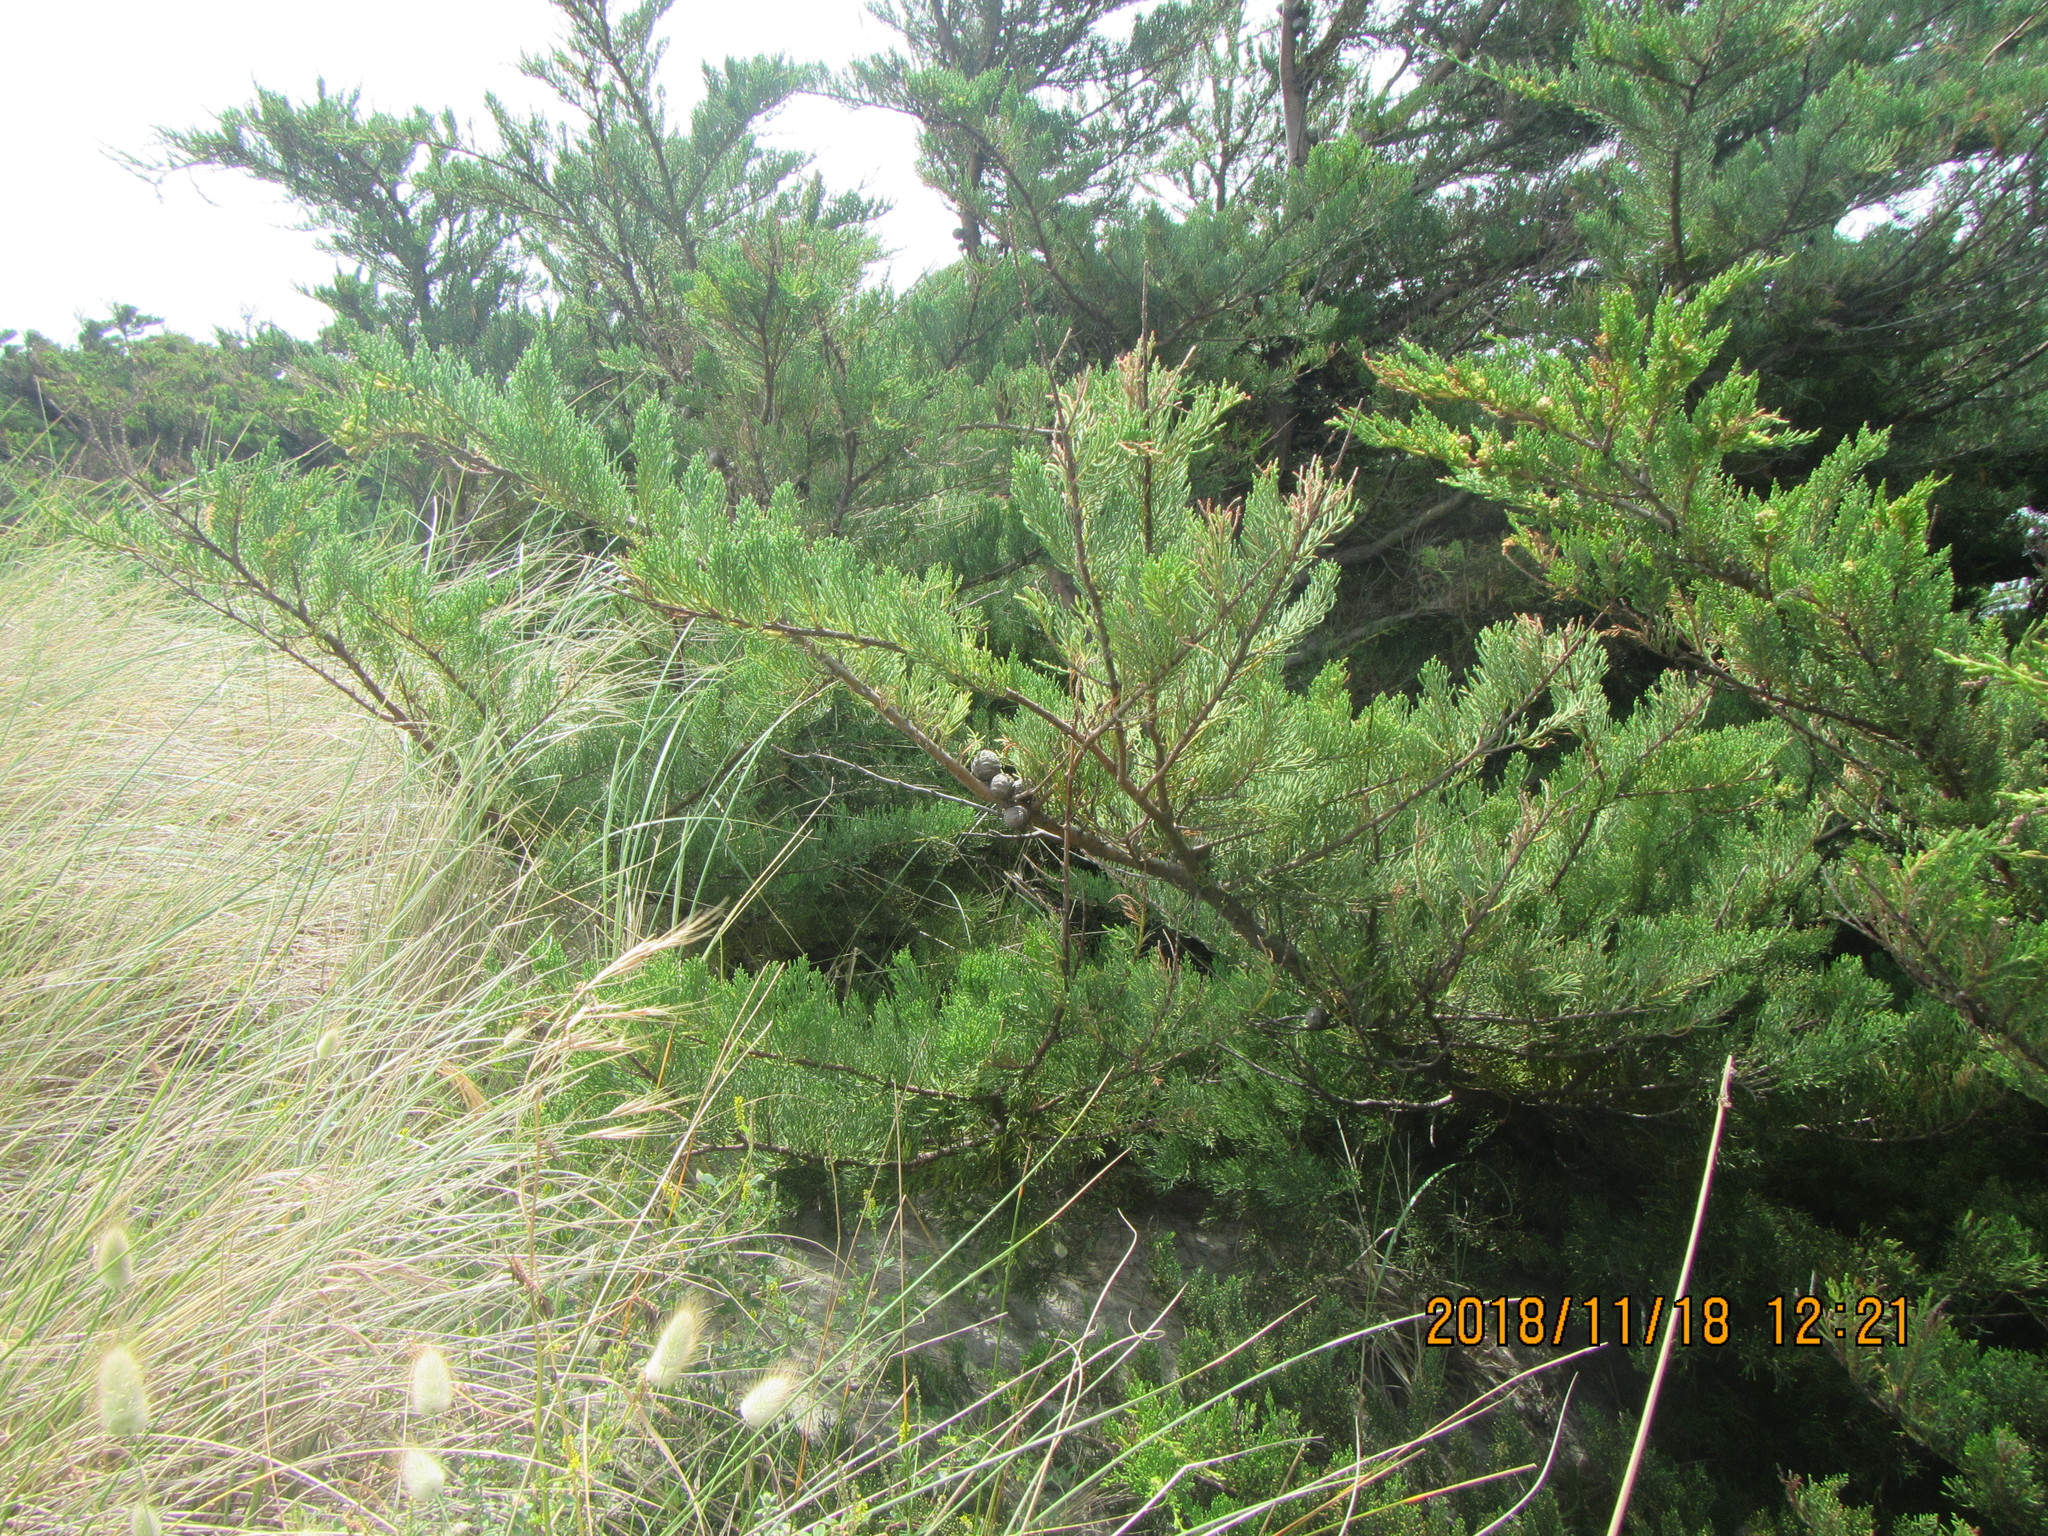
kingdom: Plantae
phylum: Tracheophyta
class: Pinopsida
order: Pinales
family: Cupressaceae
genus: Cupressus
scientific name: Cupressus macrocarpa
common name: Monterey cypress
